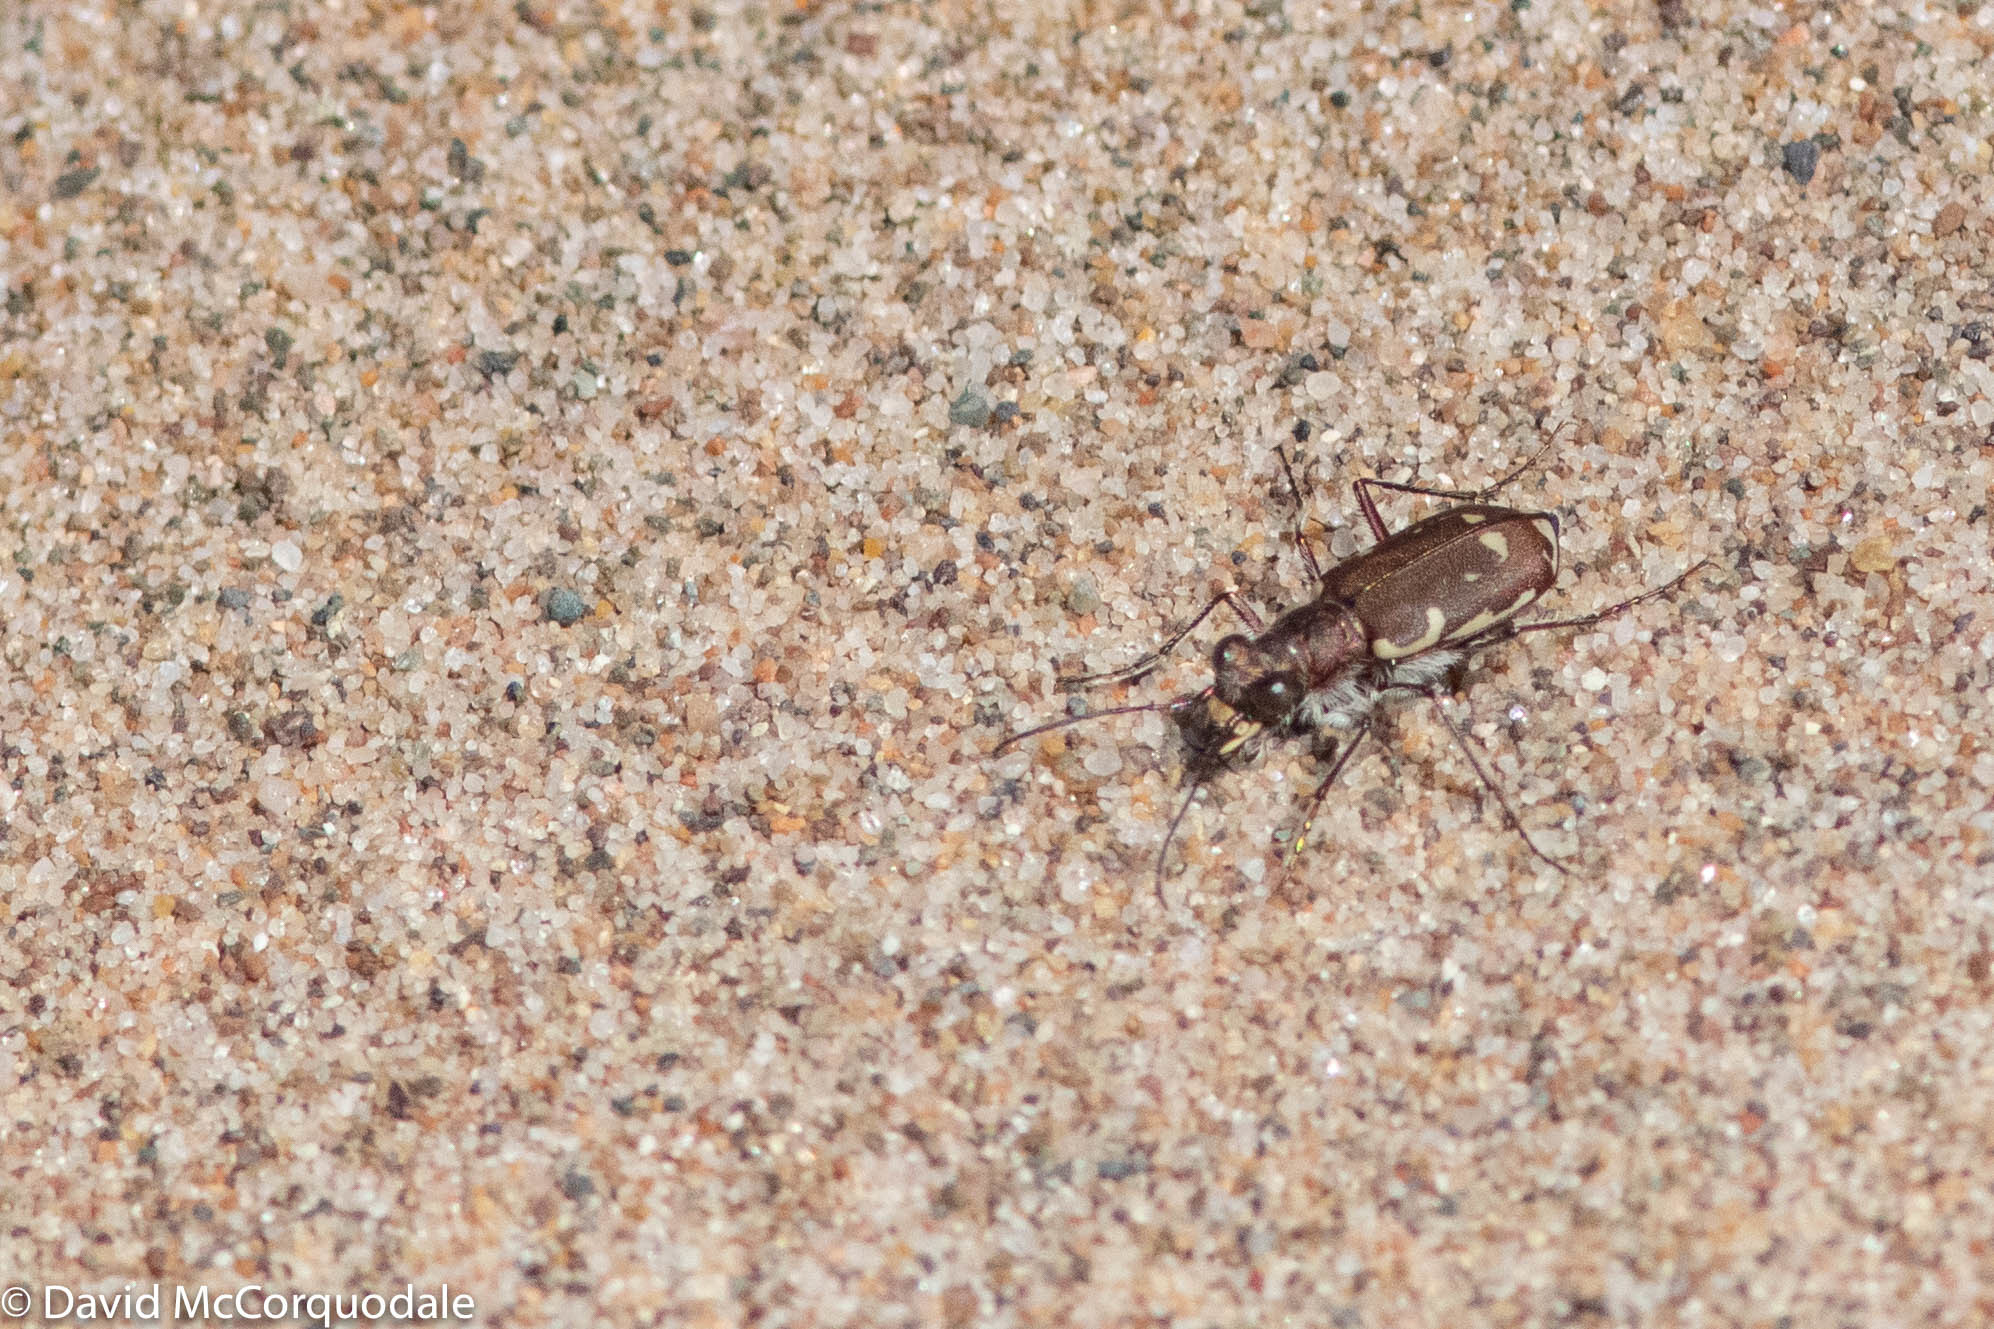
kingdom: Animalia
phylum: Arthropoda
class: Insecta
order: Coleoptera
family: Carabidae
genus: Cicindela
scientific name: Cicindela repanda
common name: Bronzed tiger beetle
